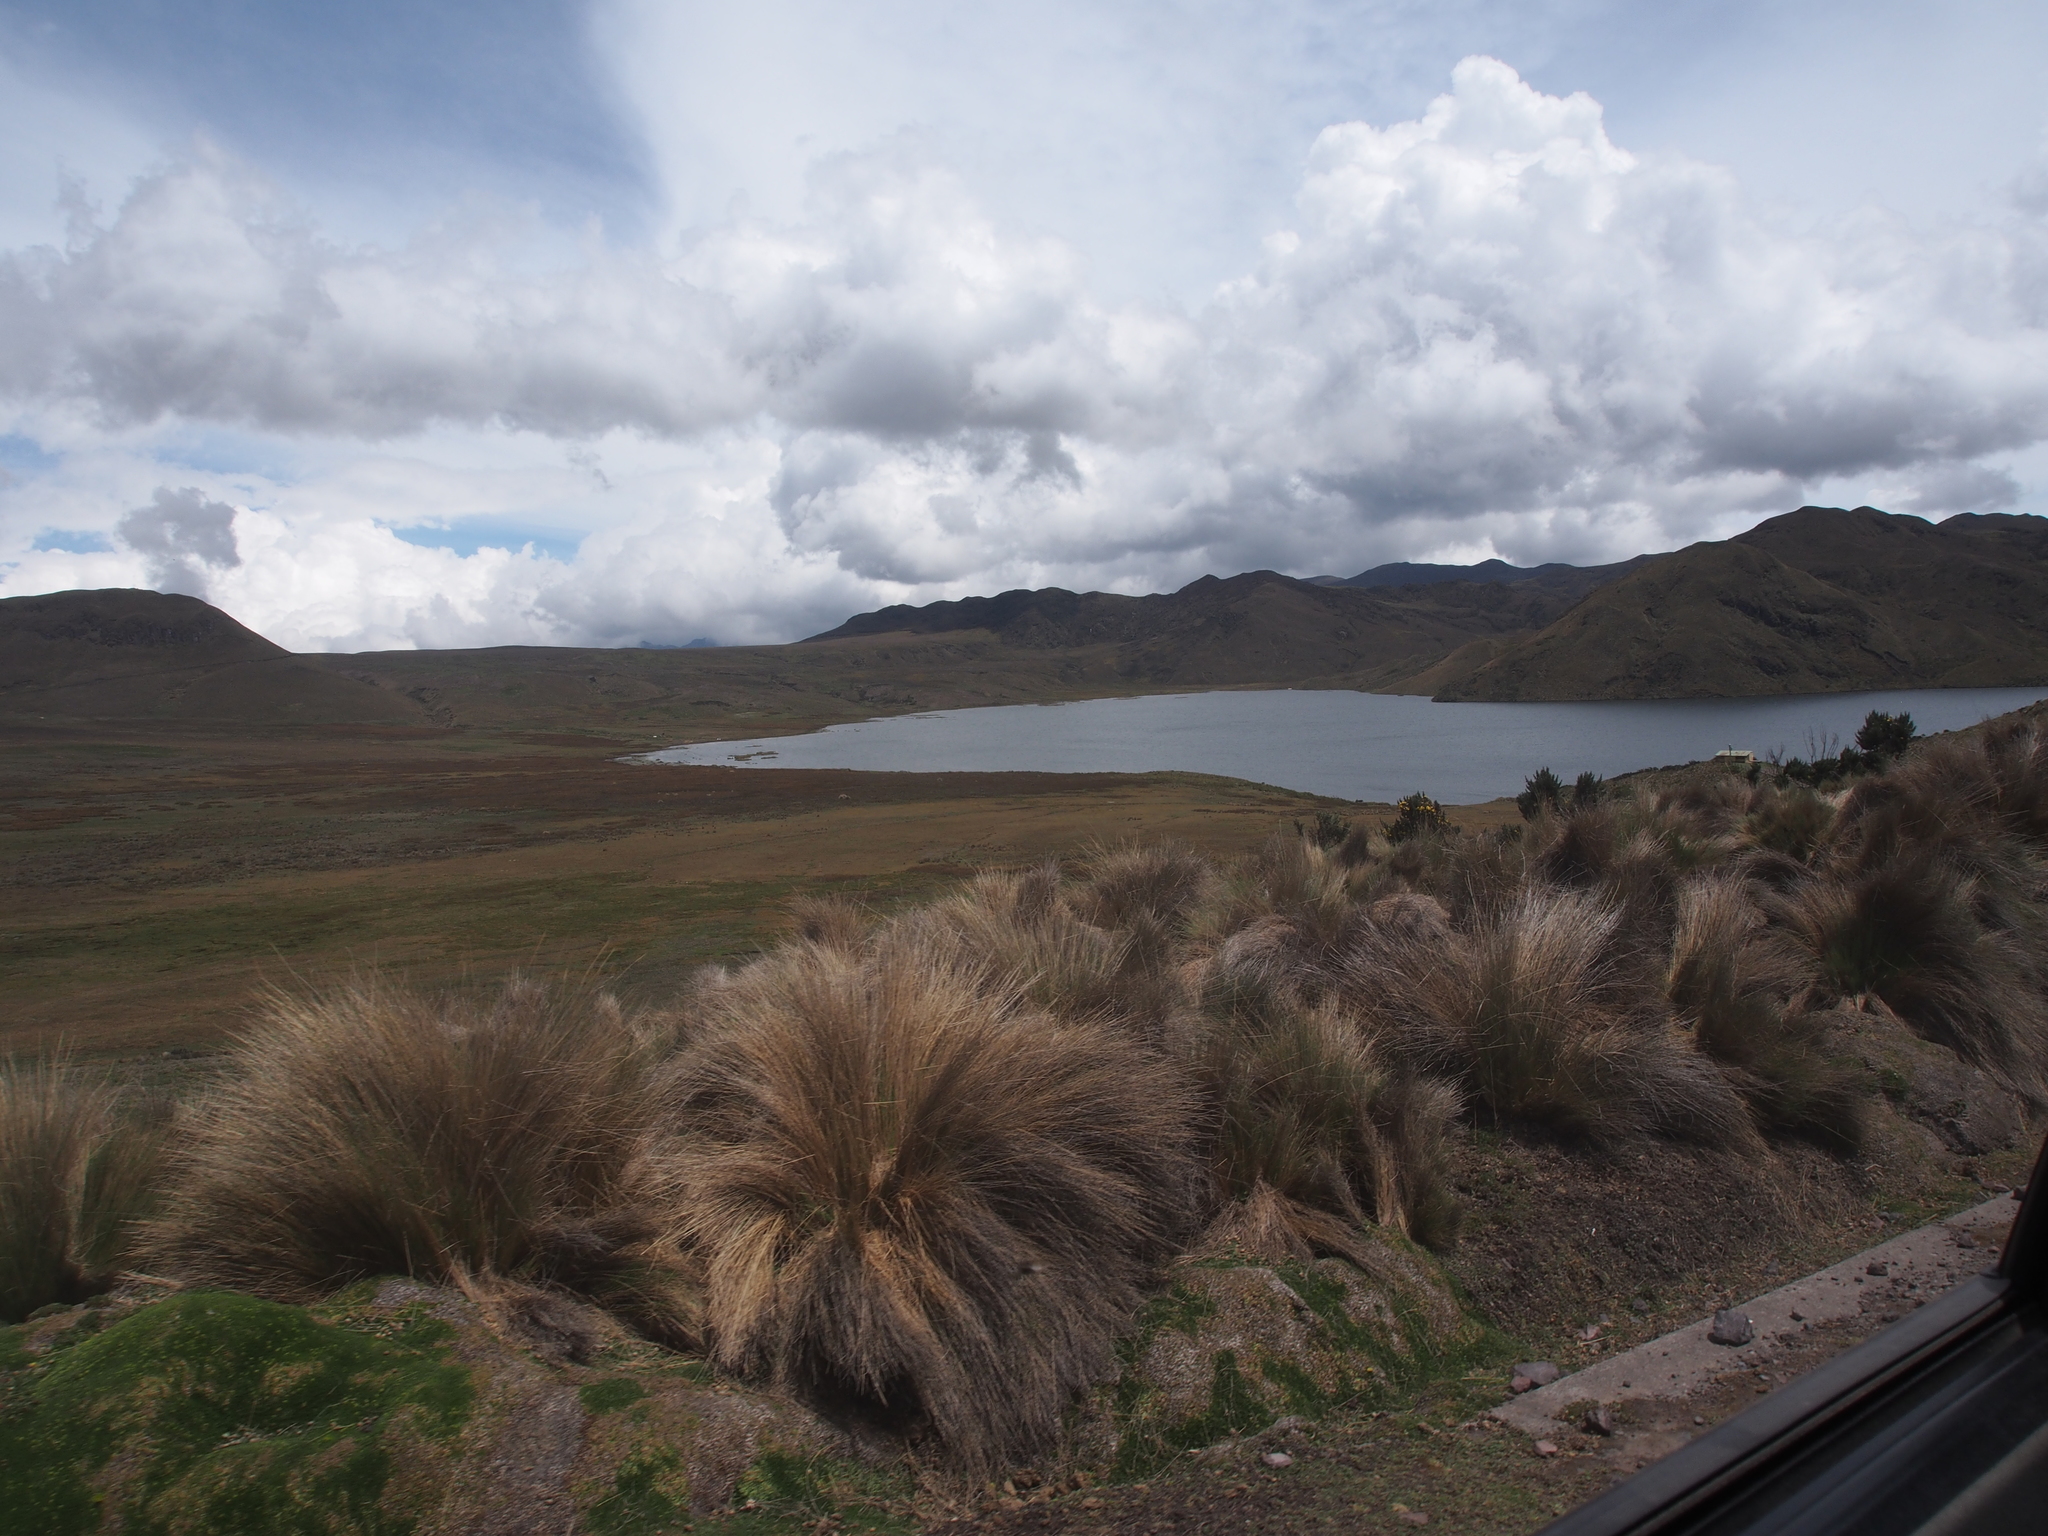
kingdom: Plantae
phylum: Tracheophyta
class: Liliopsida
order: Poales
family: Poaceae
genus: Calamagrostis
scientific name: Calamagrostis epigejos
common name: Wood small-reed
